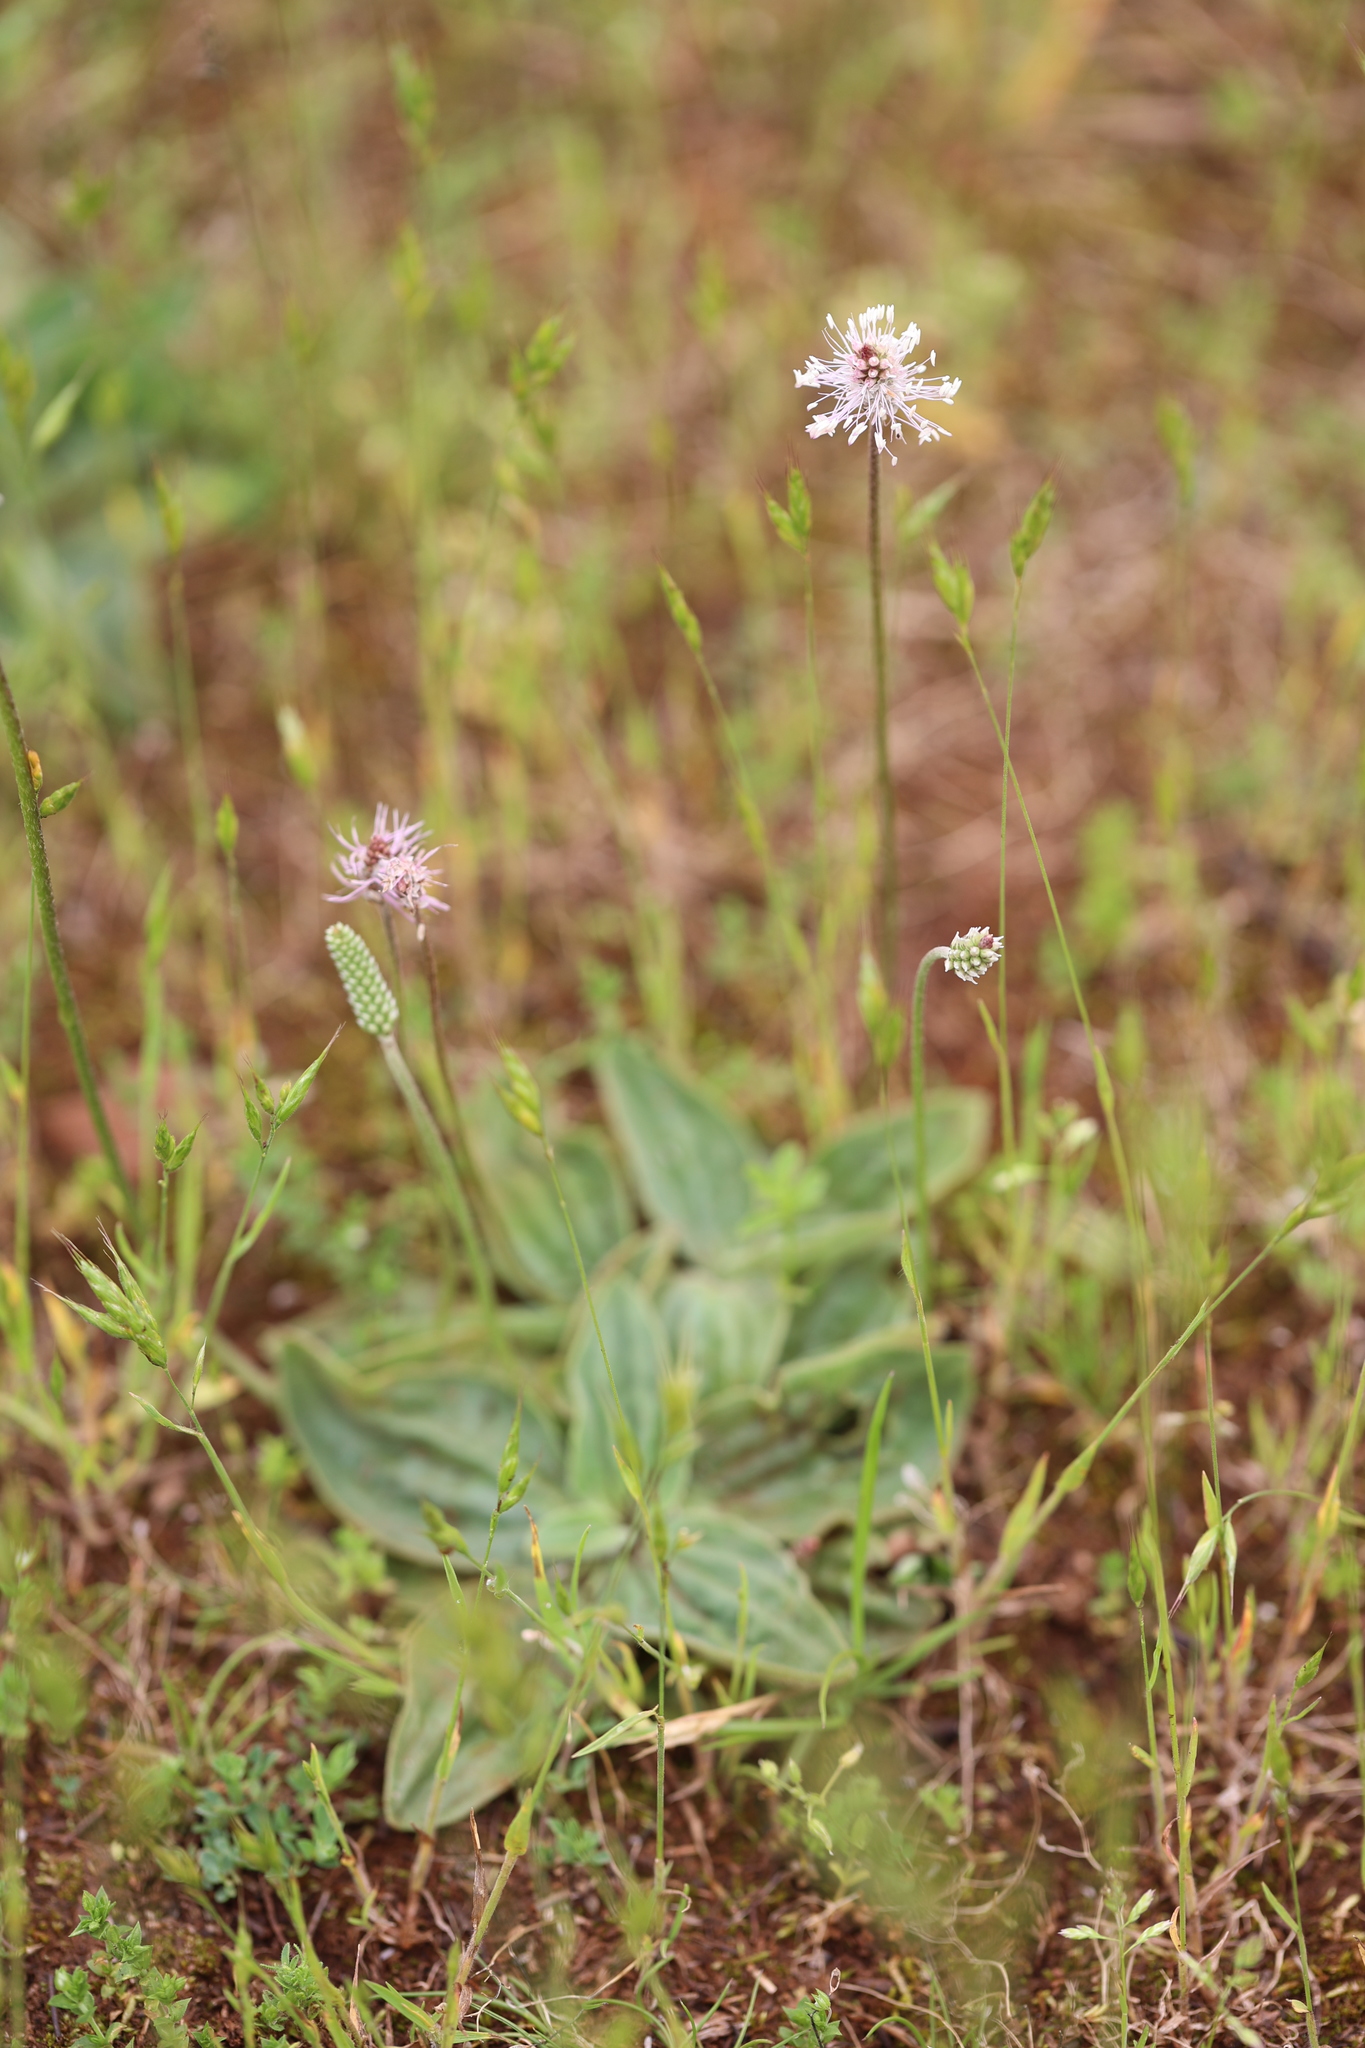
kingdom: Plantae
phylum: Tracheophyta
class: Magnoliopsida
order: Lamiales
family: Plantaginaceae
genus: Plantago
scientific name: Plantago media
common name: Hoary plantain
